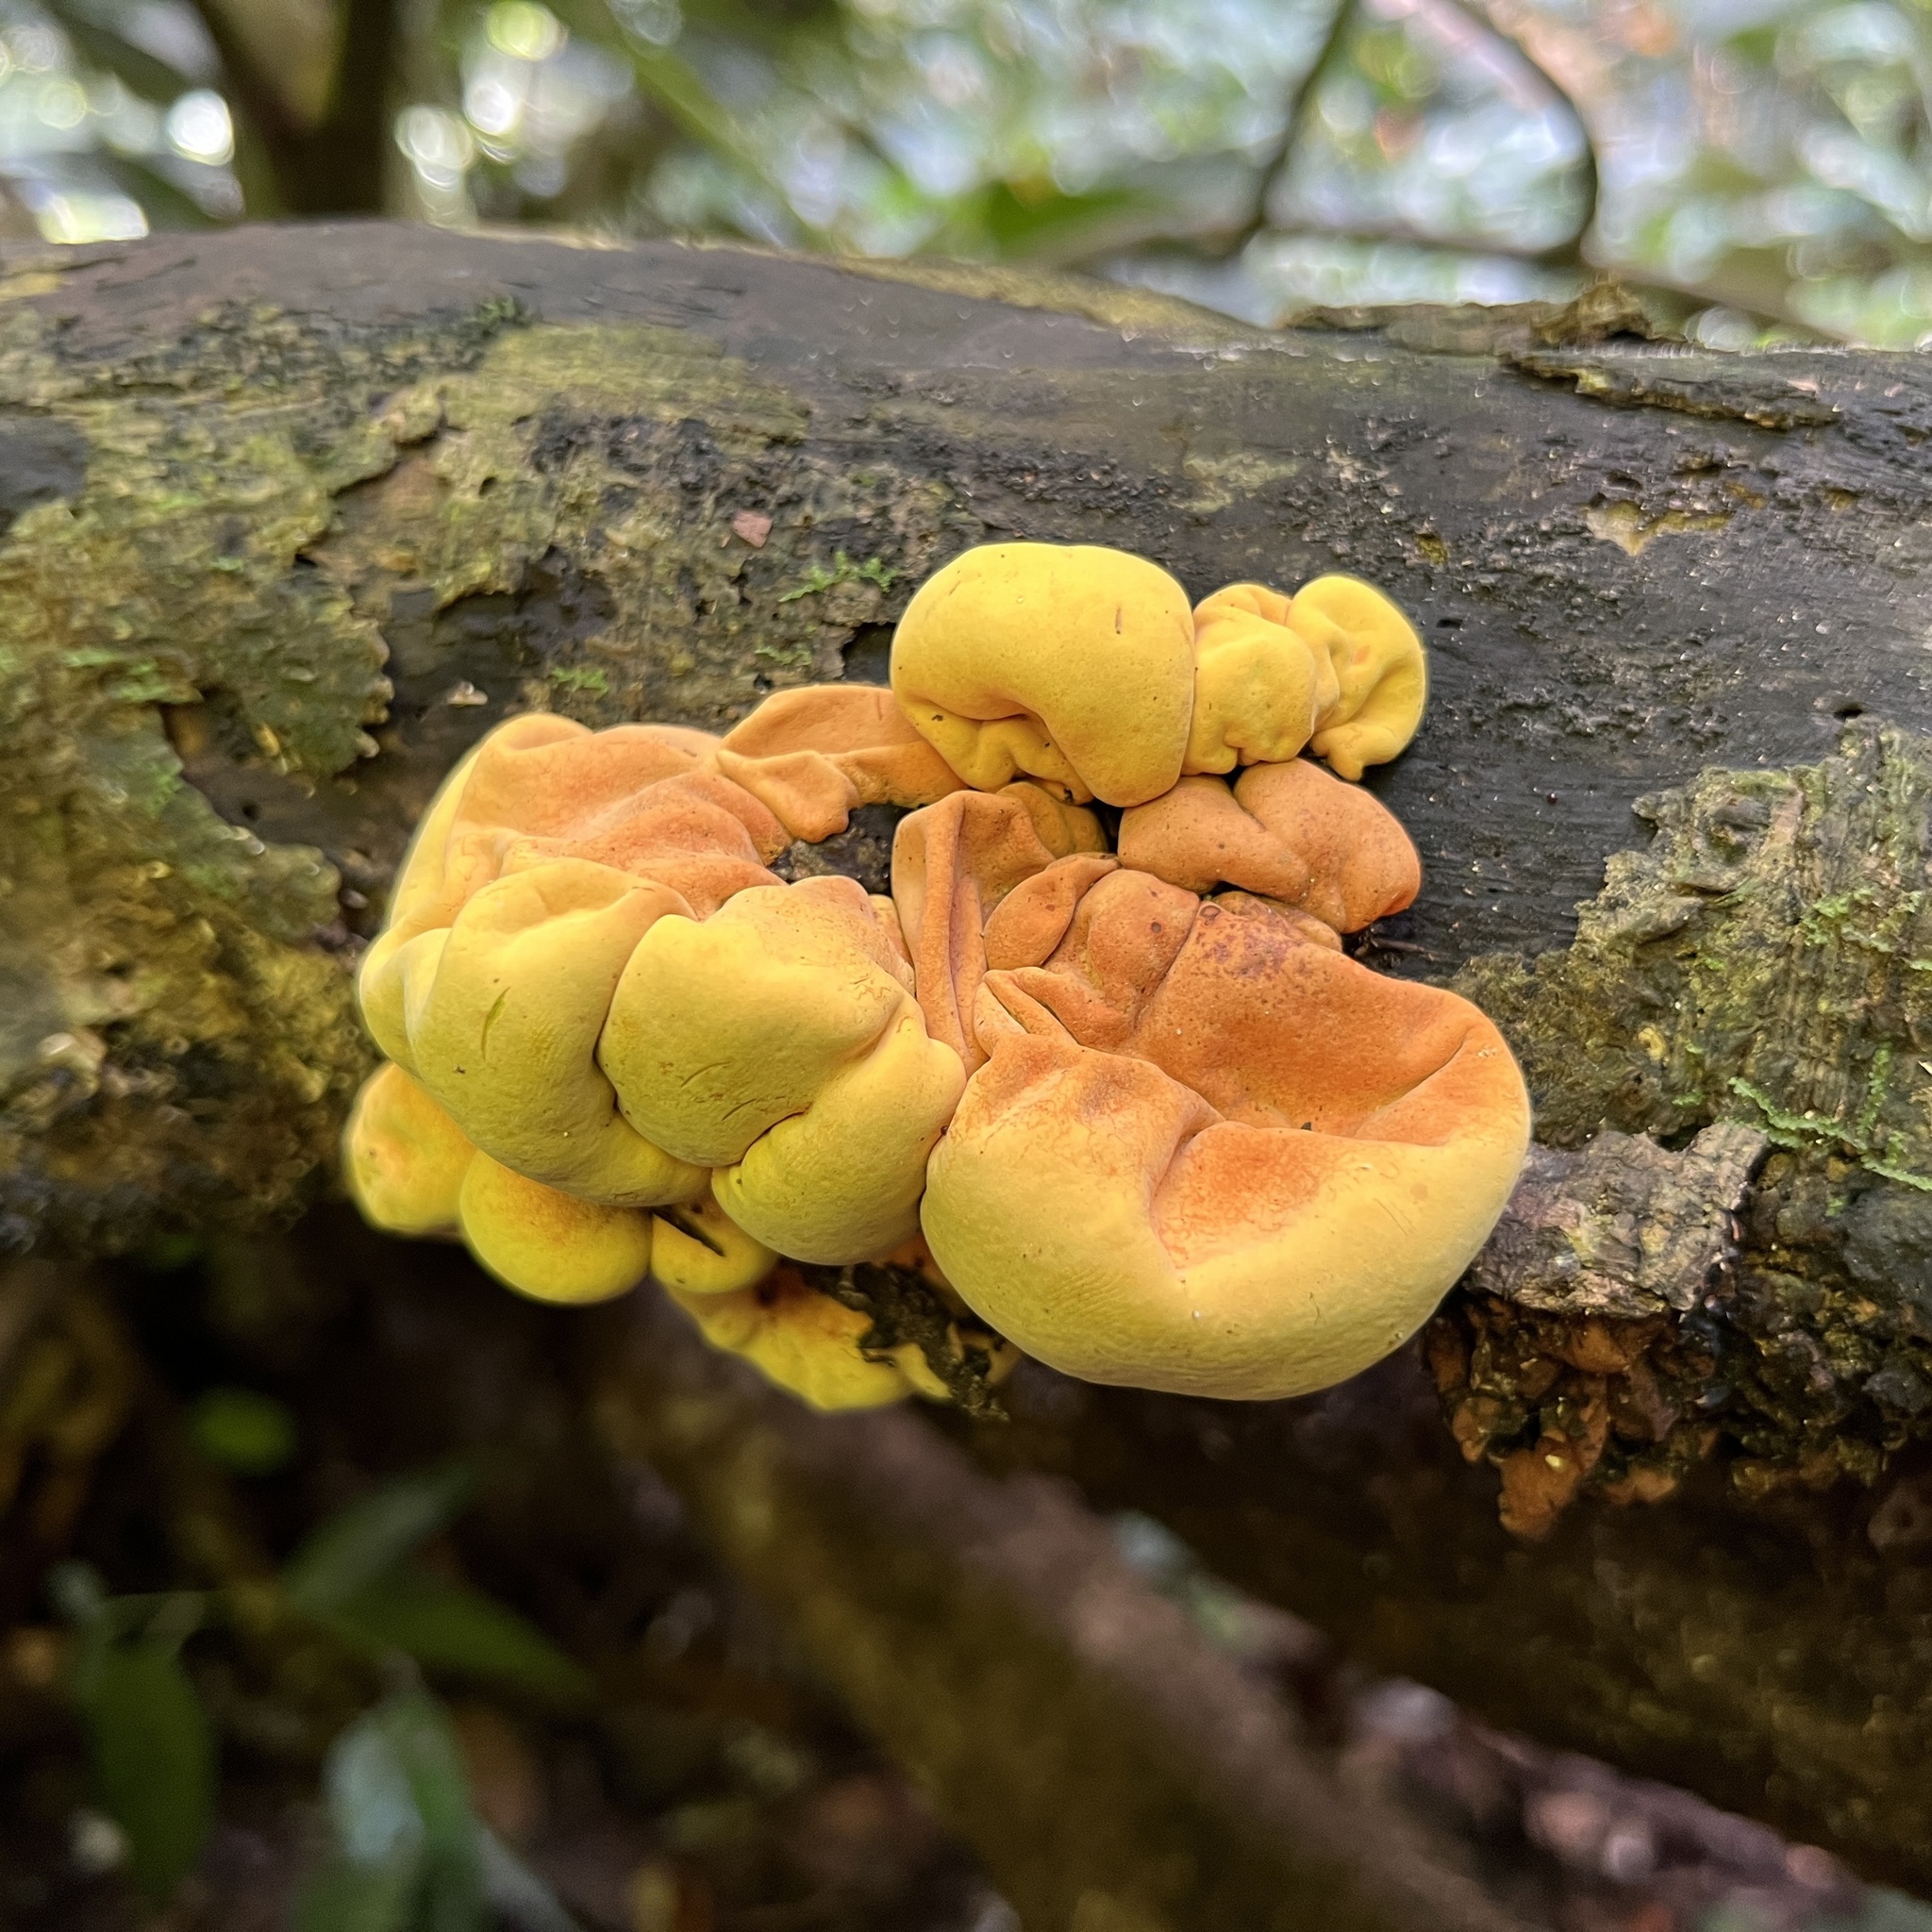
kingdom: Fungi
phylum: Ascomycota
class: Sordariomycetes
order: Xylariales
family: Hypoxylaceae
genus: Entonaema
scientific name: Entonaema liquescens
